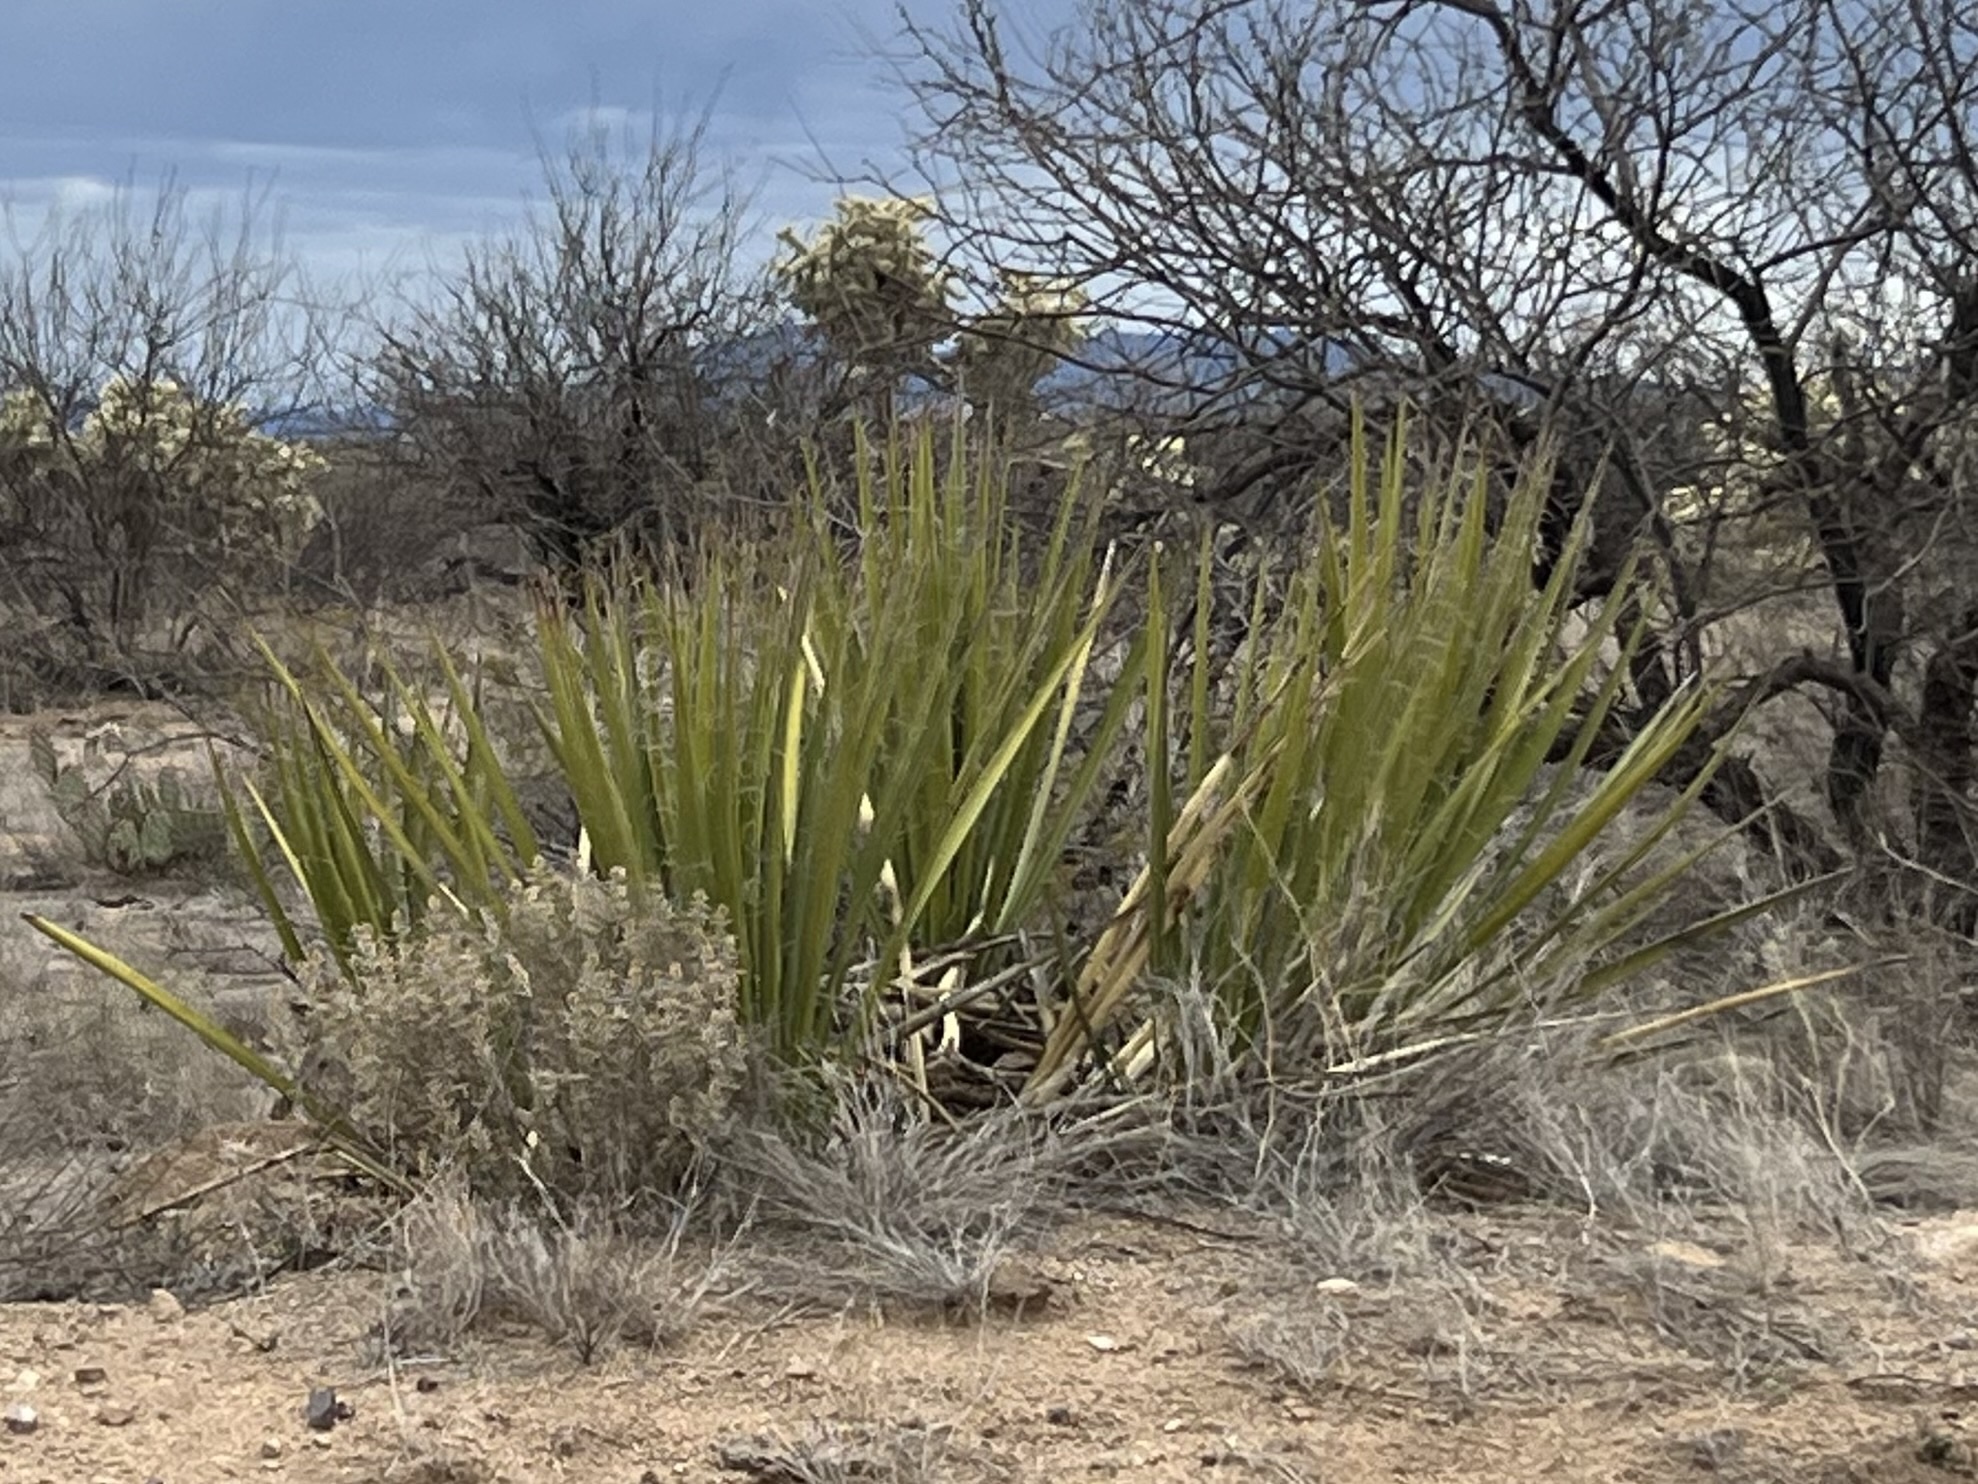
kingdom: Plantae
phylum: Tracheophyta
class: Liliopsida
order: Asparagales
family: Asparagaceae
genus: Yucca
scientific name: Yucca baccata
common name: Banana yucca
